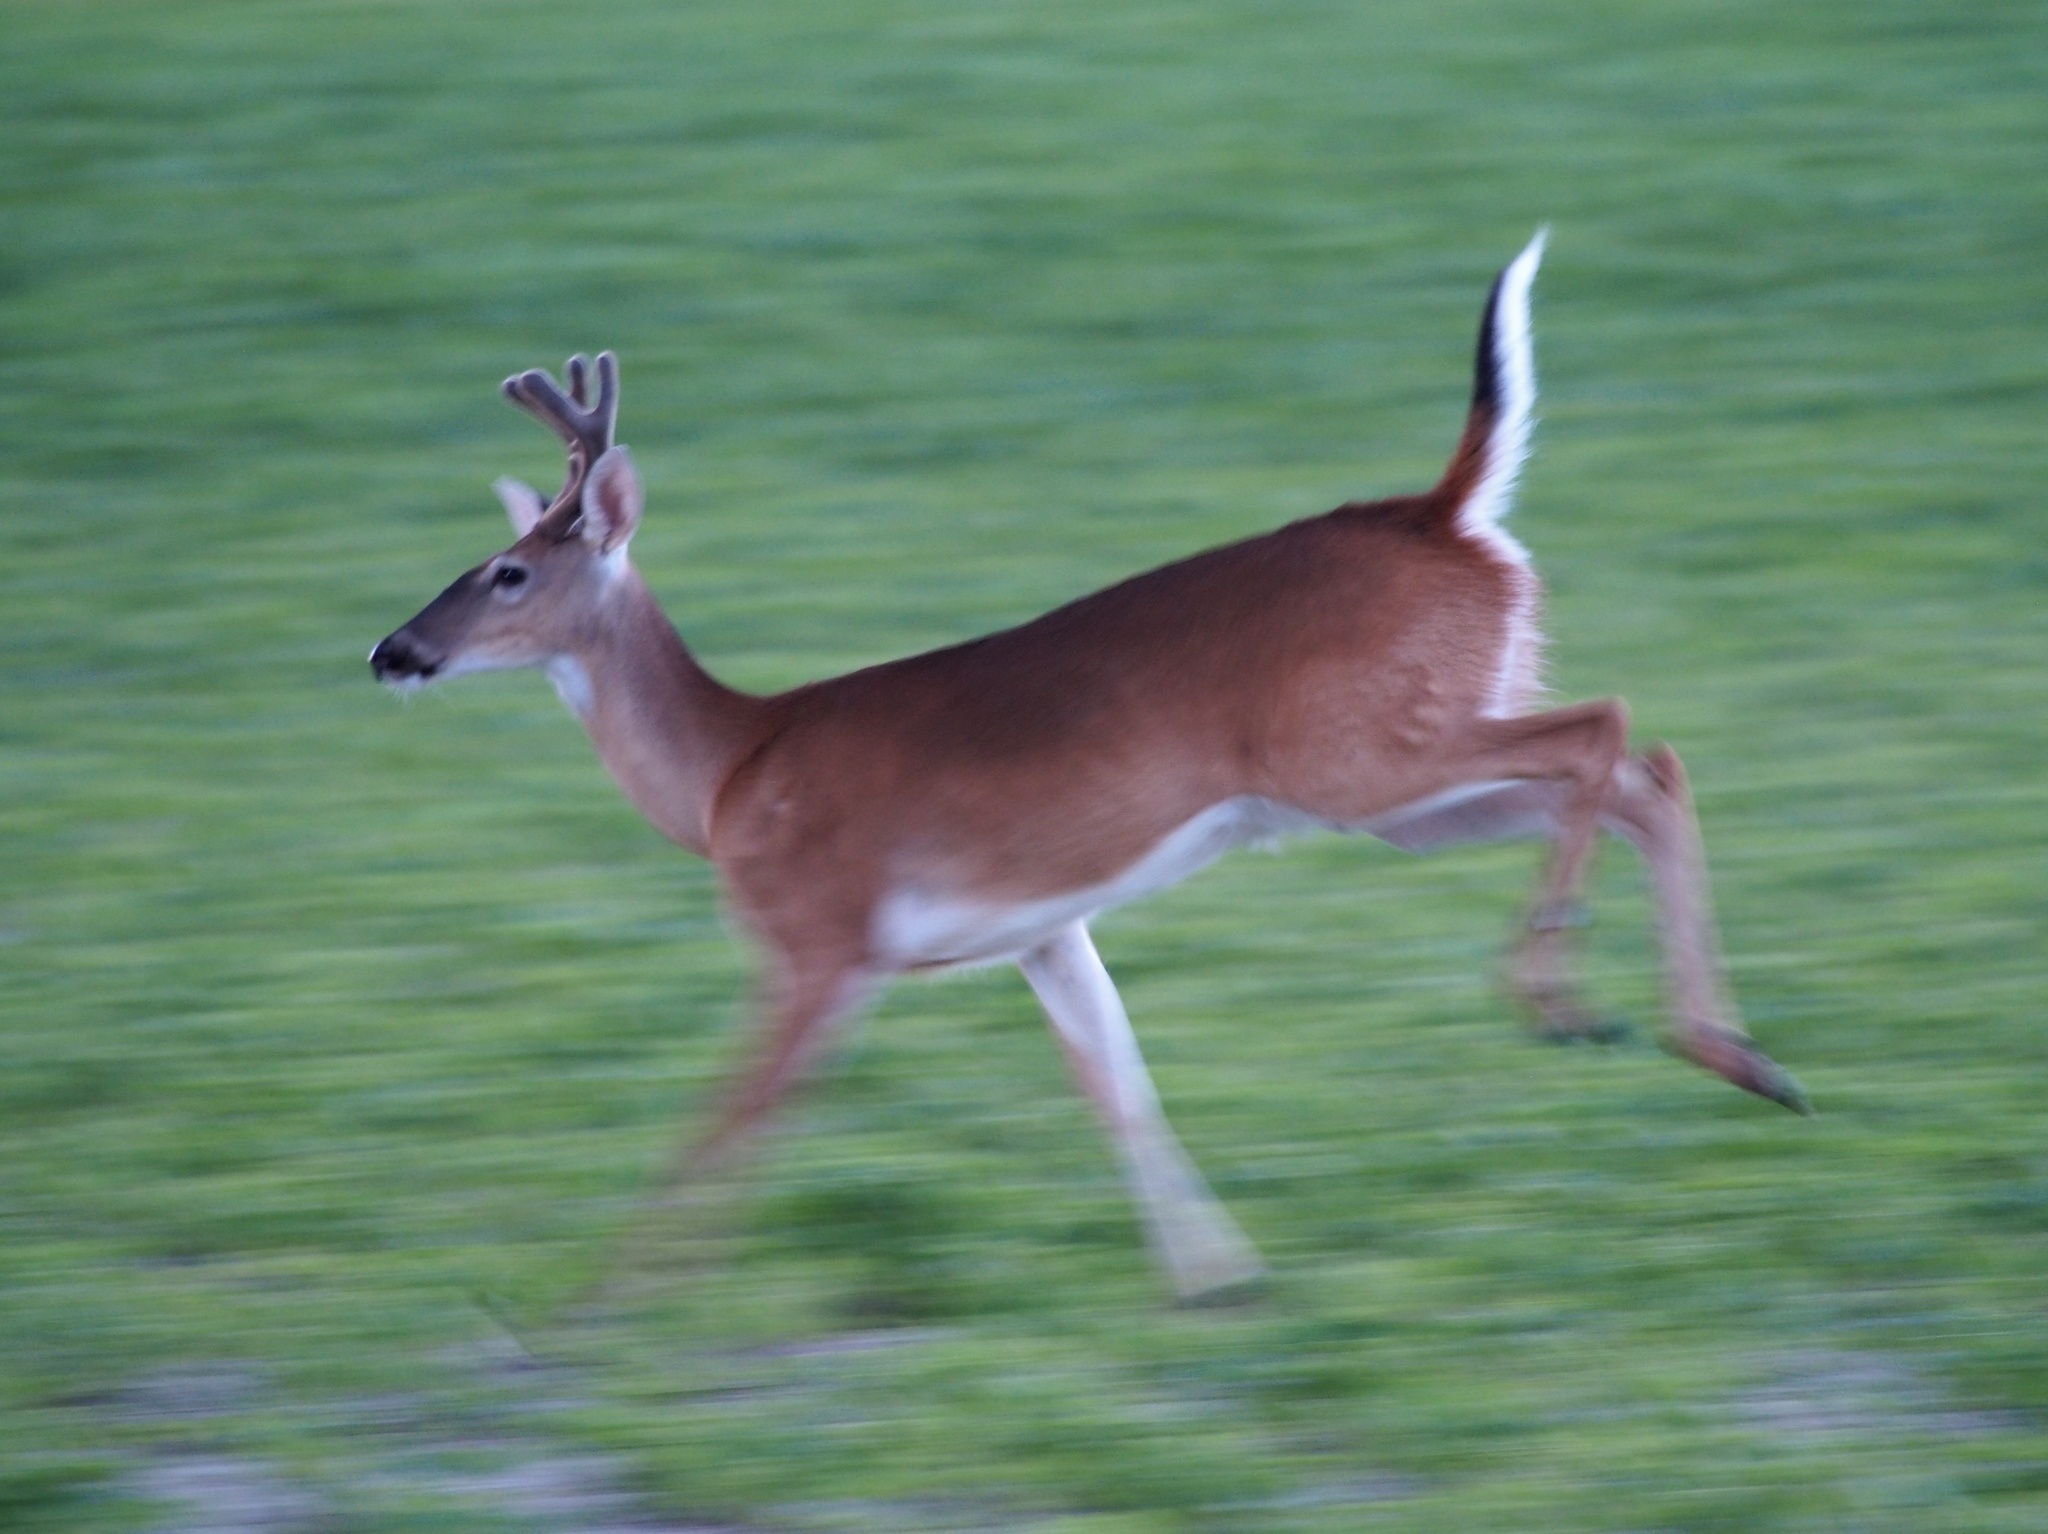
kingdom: Animalia
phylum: Chordata
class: Mammalia
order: Artiodactyla
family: Cervidae
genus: Odocoileus
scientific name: Odocoileus virginianus
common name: White-tailed deer
